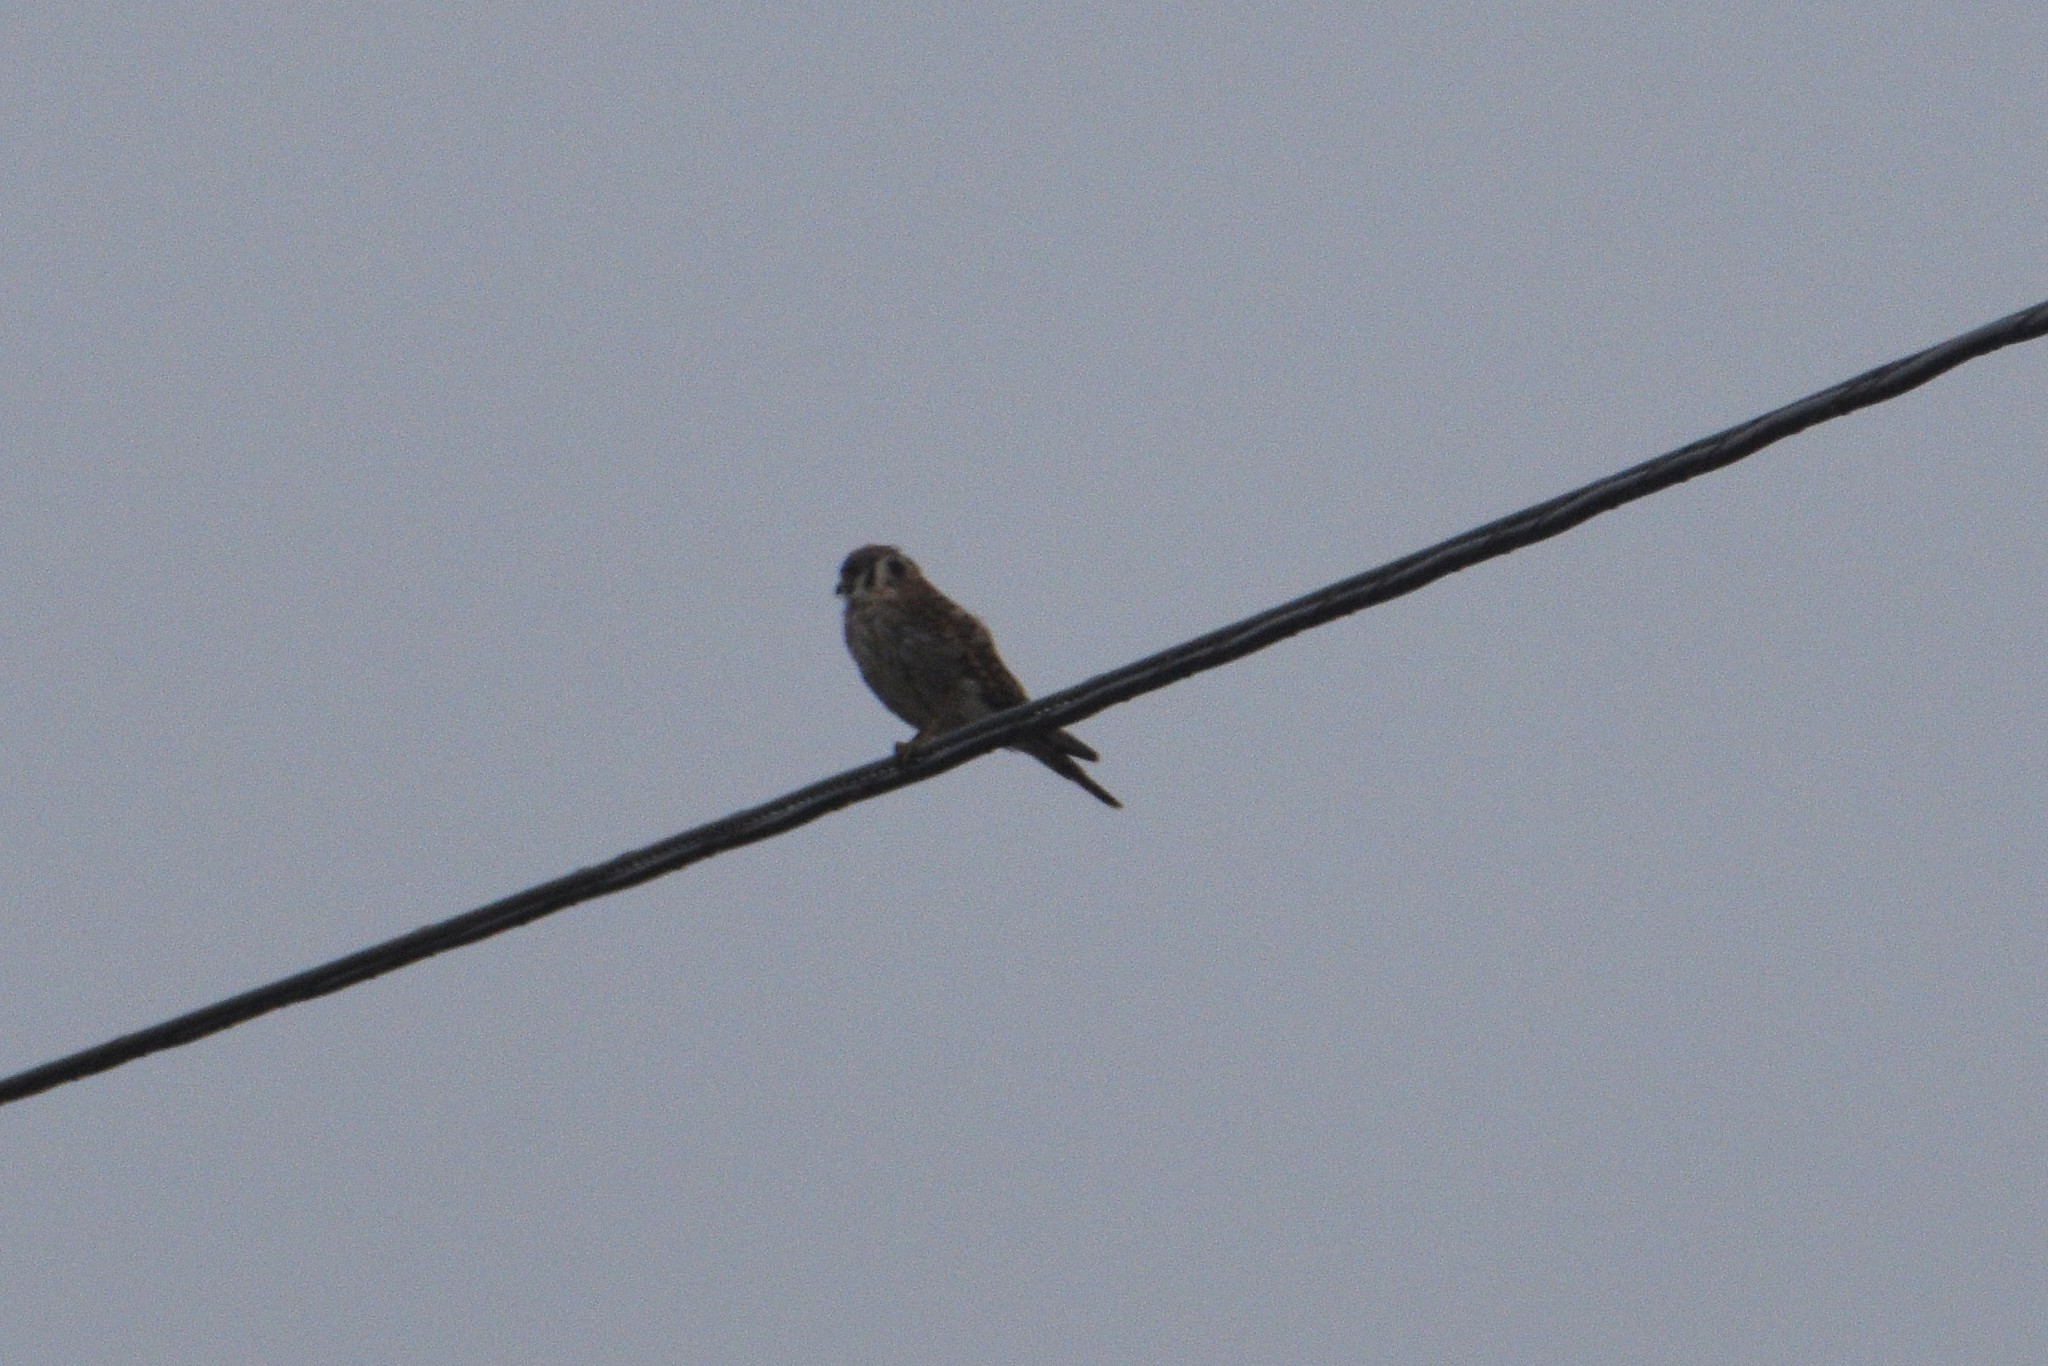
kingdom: Animalia
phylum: Chordata
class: Aves
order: Falconiformes
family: Falconidae
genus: Falco
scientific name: Falco sparverius
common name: American kestrel
